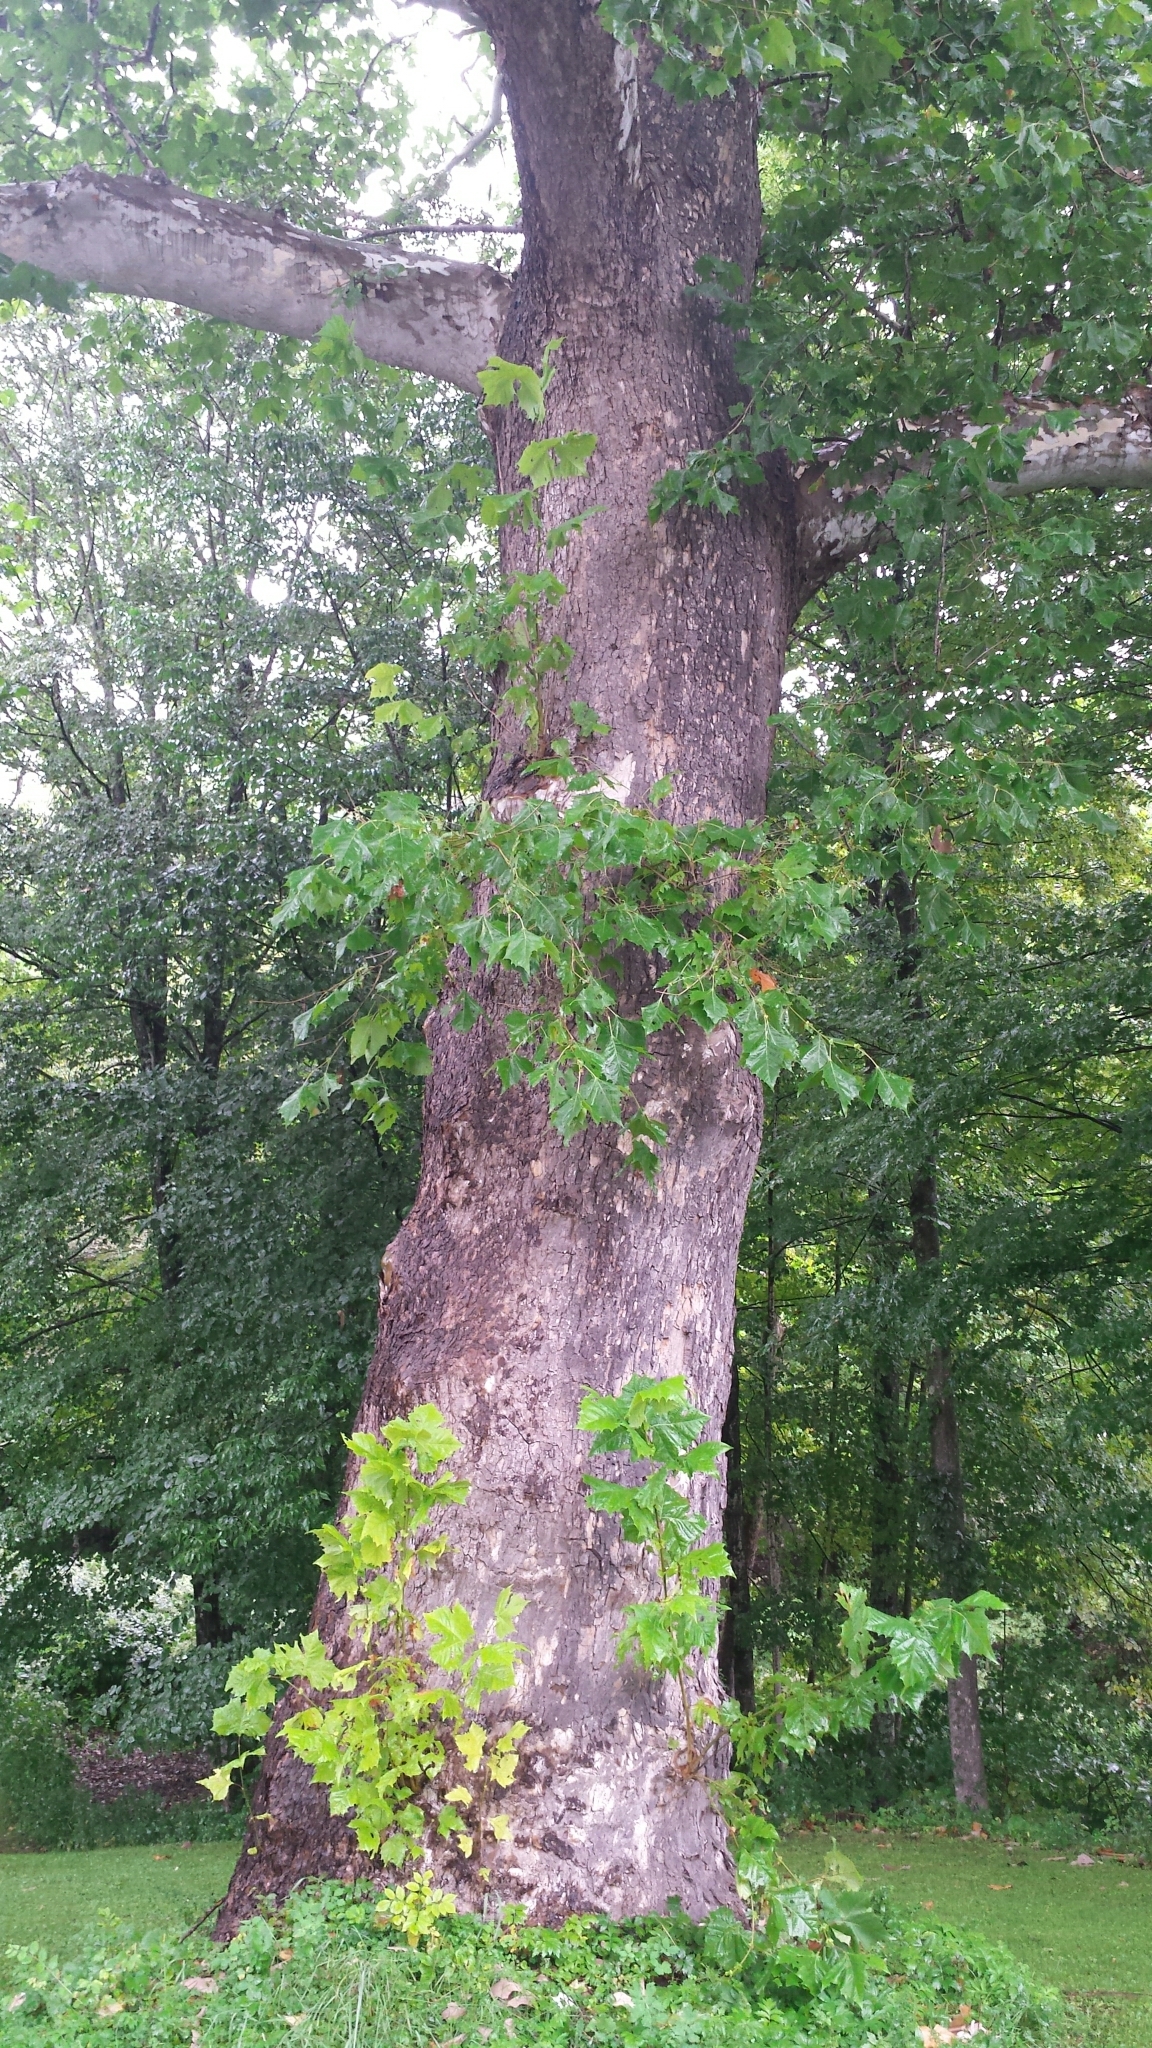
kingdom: Plantae
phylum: Tracheophyta
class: Magnoliopsida
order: Proteales
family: Platanaceae
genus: Platanus
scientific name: Platanus occidentalis
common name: American sycamore
